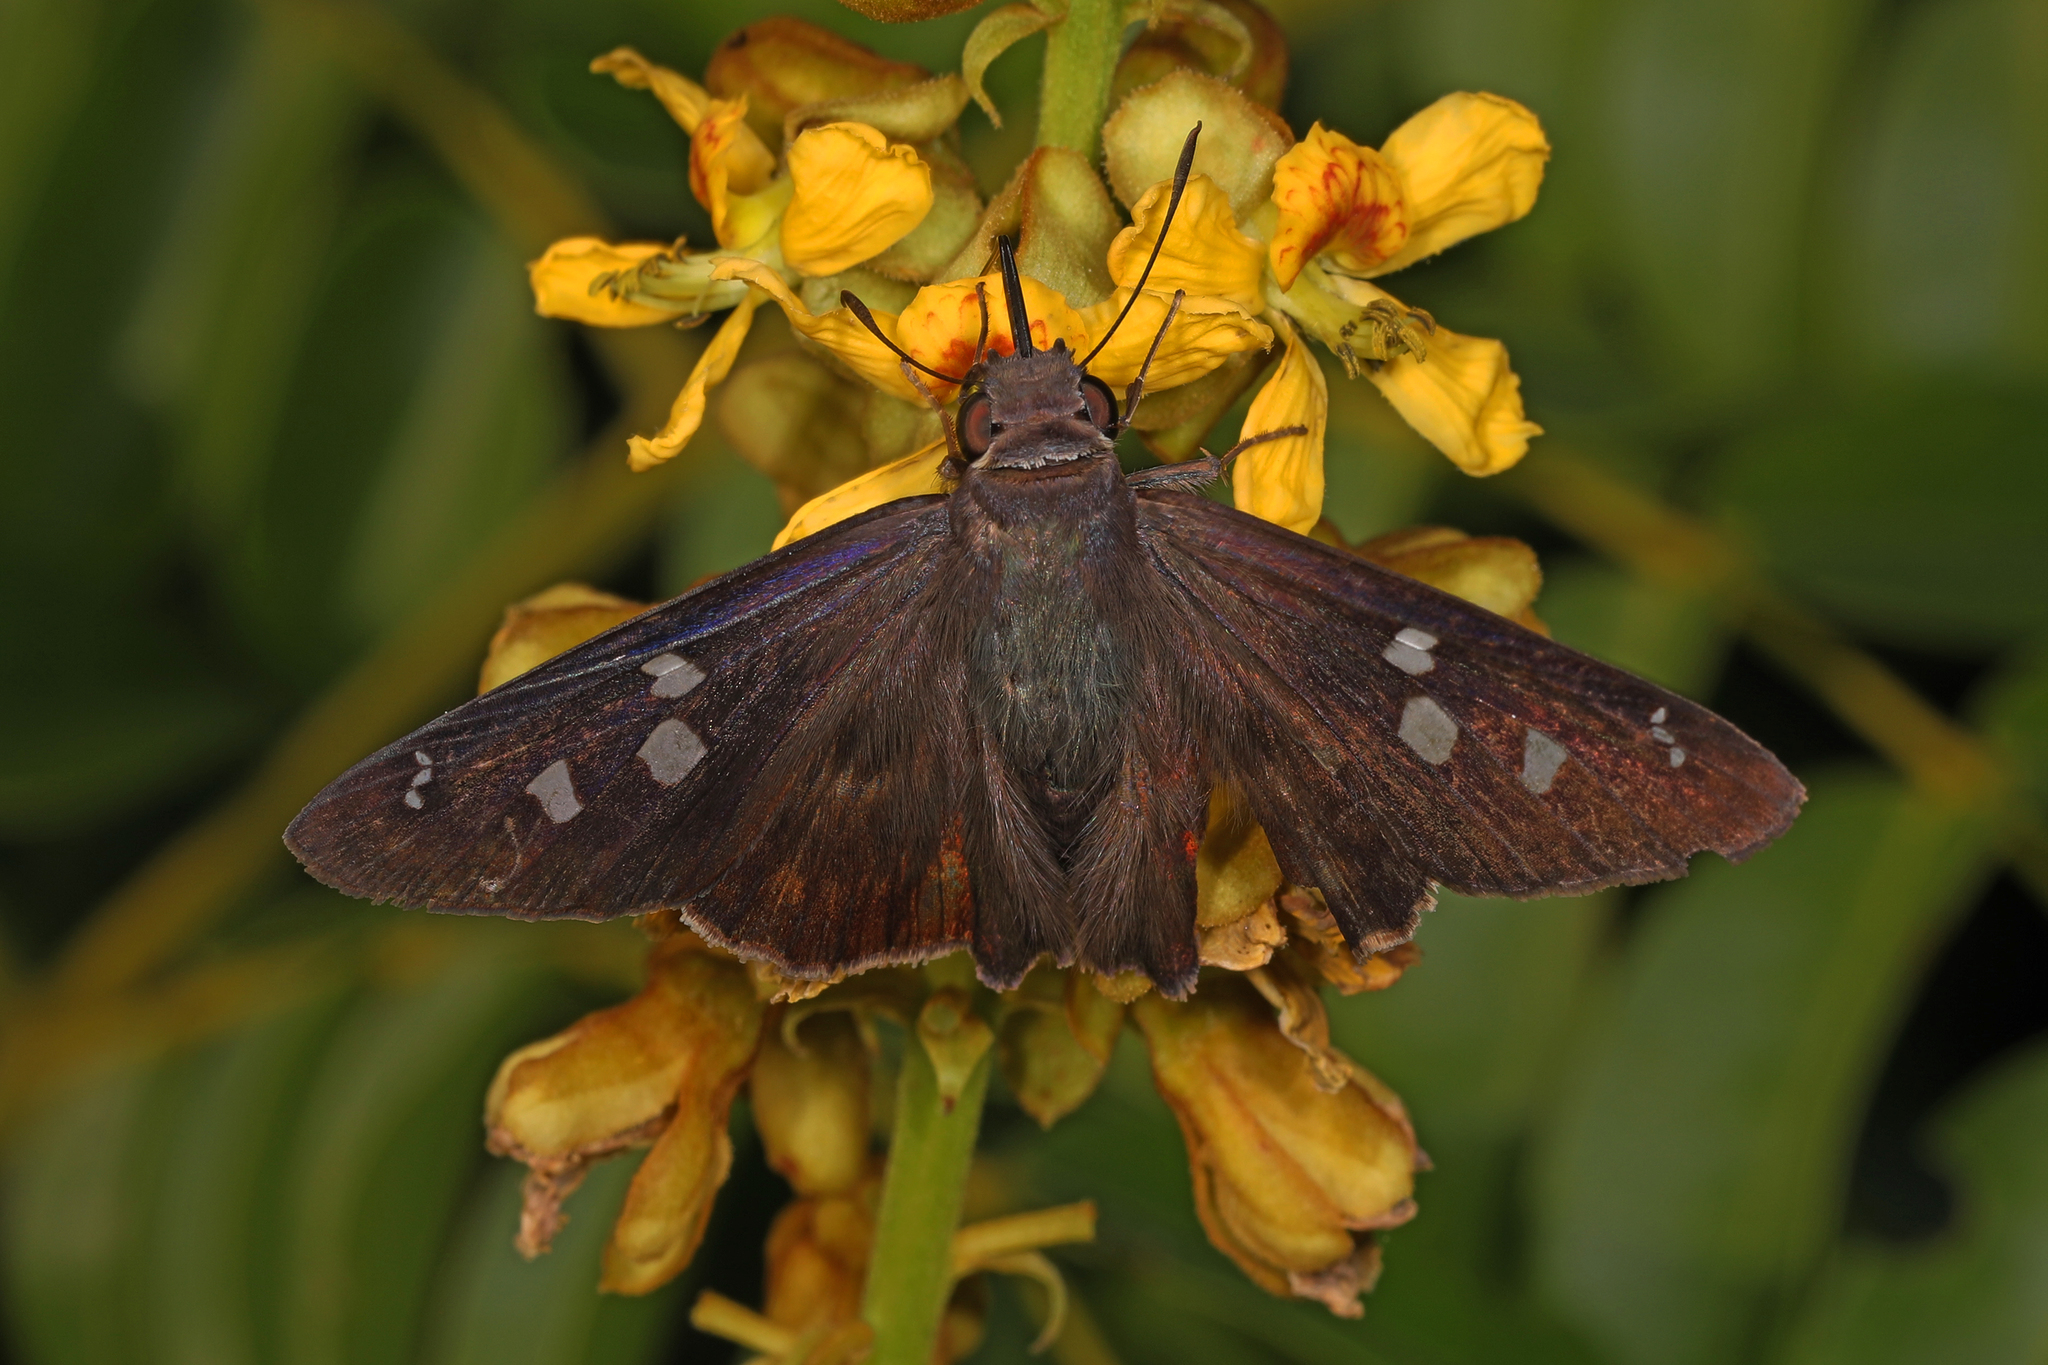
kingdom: Animalia
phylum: Arthropoda
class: Insecta
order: Lepidoptera
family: Hesperiidae
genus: Polygonus
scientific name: Polygonus leo
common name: Hammoch skipper
